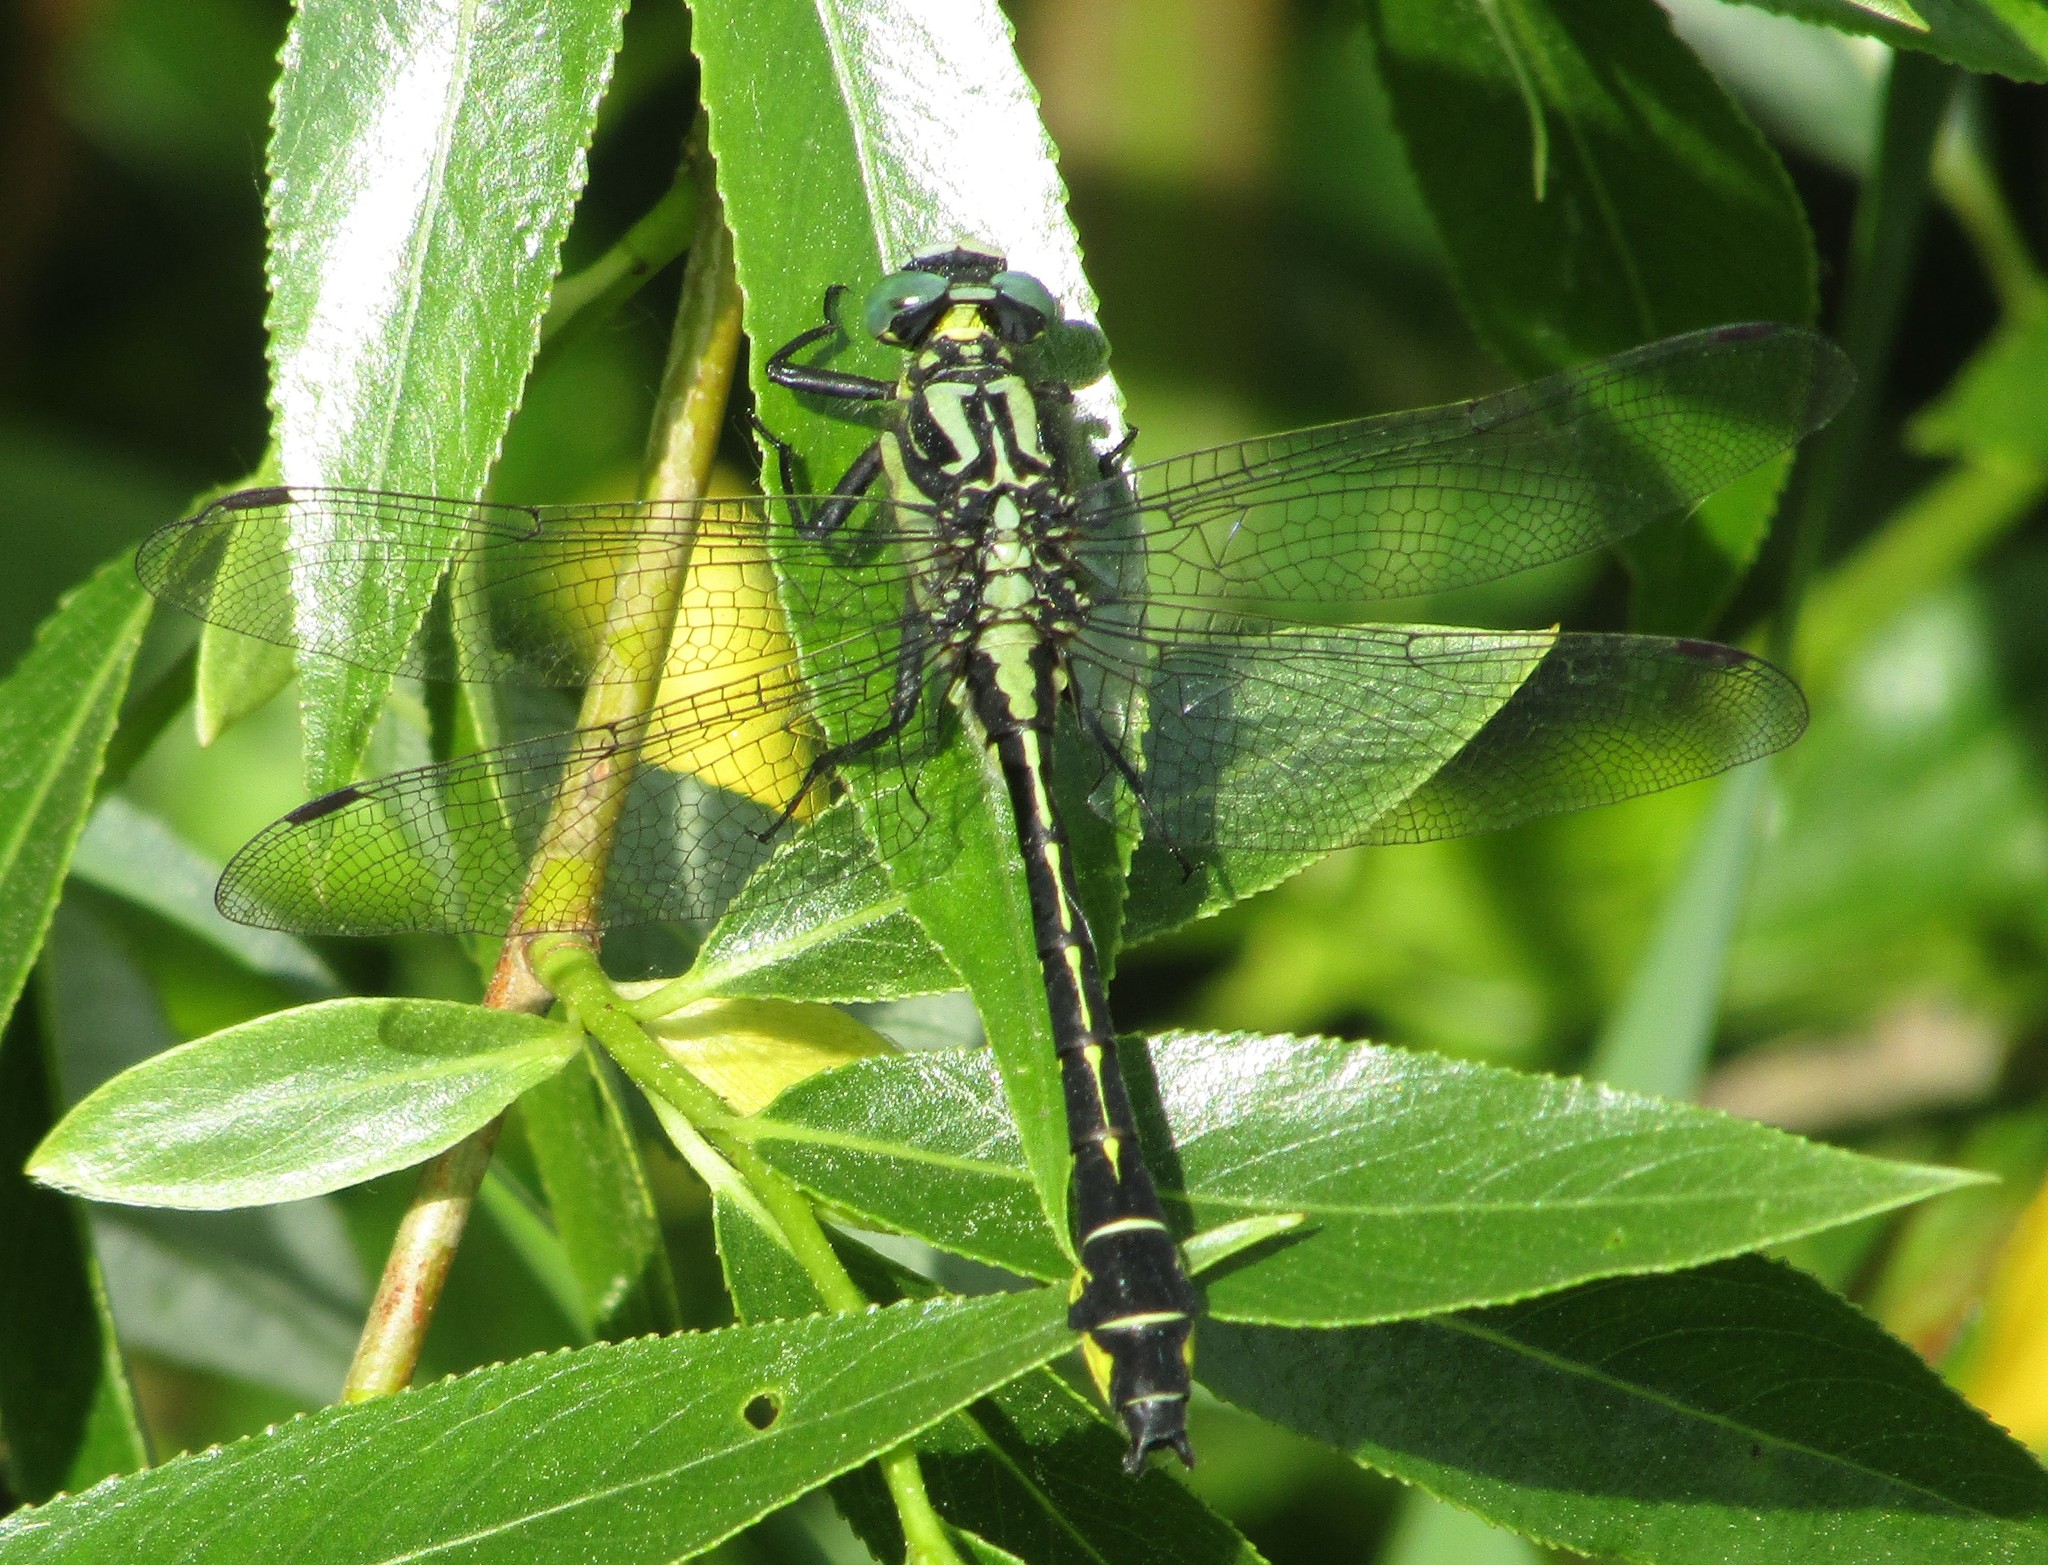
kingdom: Animalia
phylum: Arthropoda
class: Insecta
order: Odonata
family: Gomphidae
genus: Gomphus
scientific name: Gomphus vulgatissimus
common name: Club-tailed dragonfly
